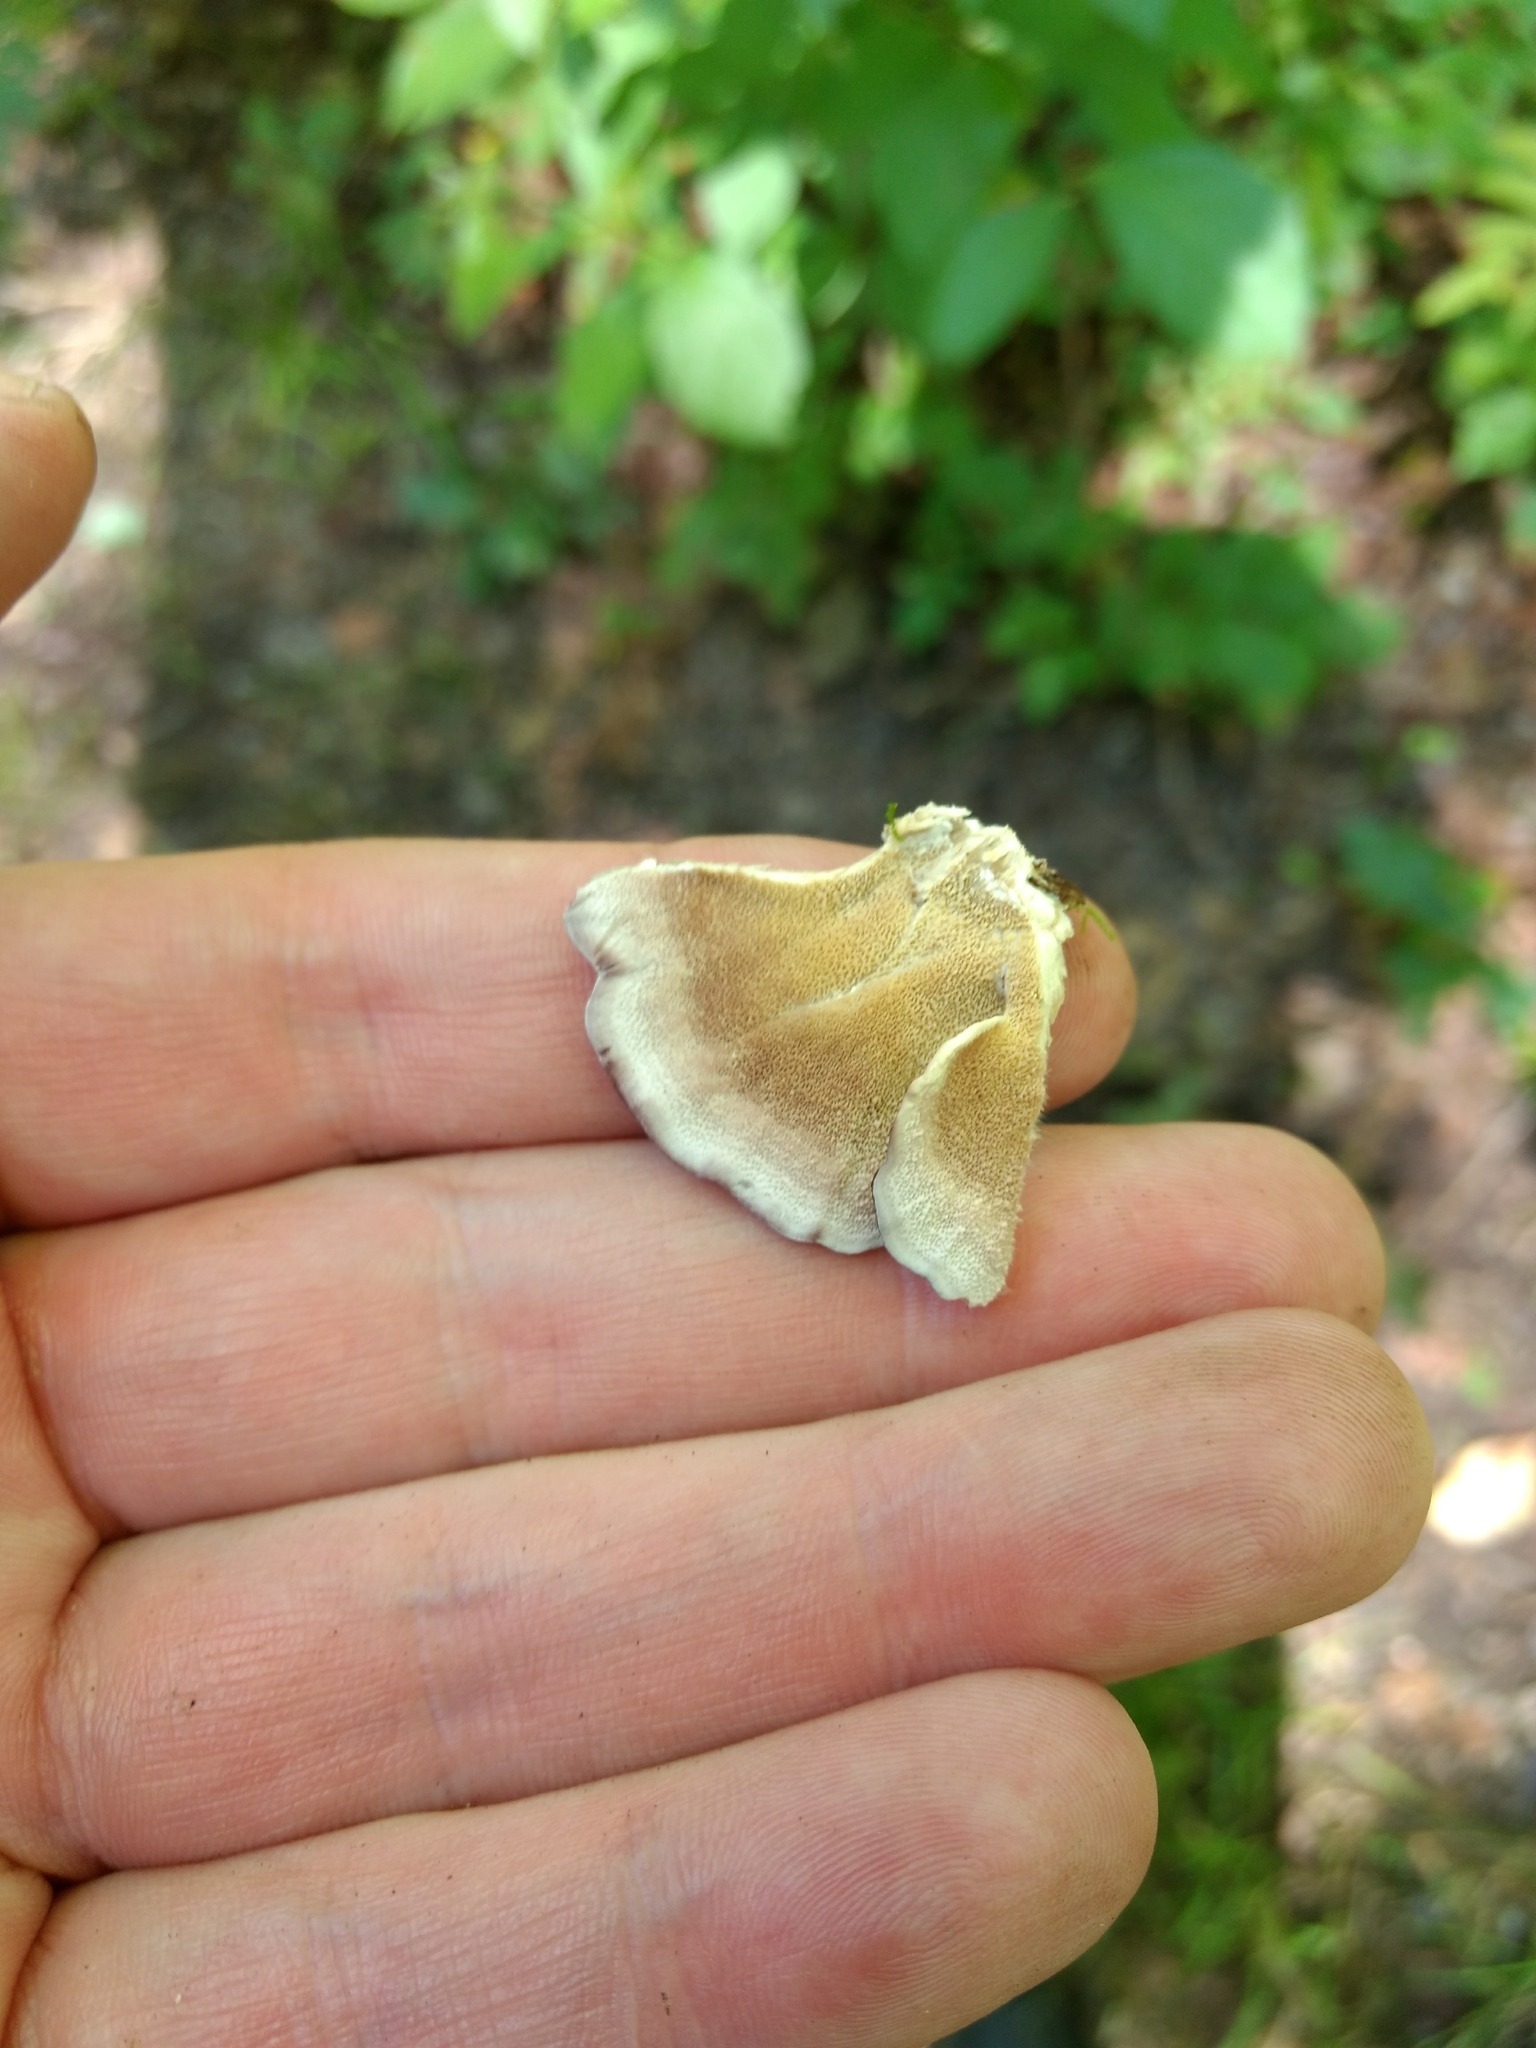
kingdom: Fungi
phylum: Basidiomycota
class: Agaricomycetes
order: Hymenochaetales
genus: Trichaptum
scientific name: Trichaptum biforme
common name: Violet-toothed polypore
